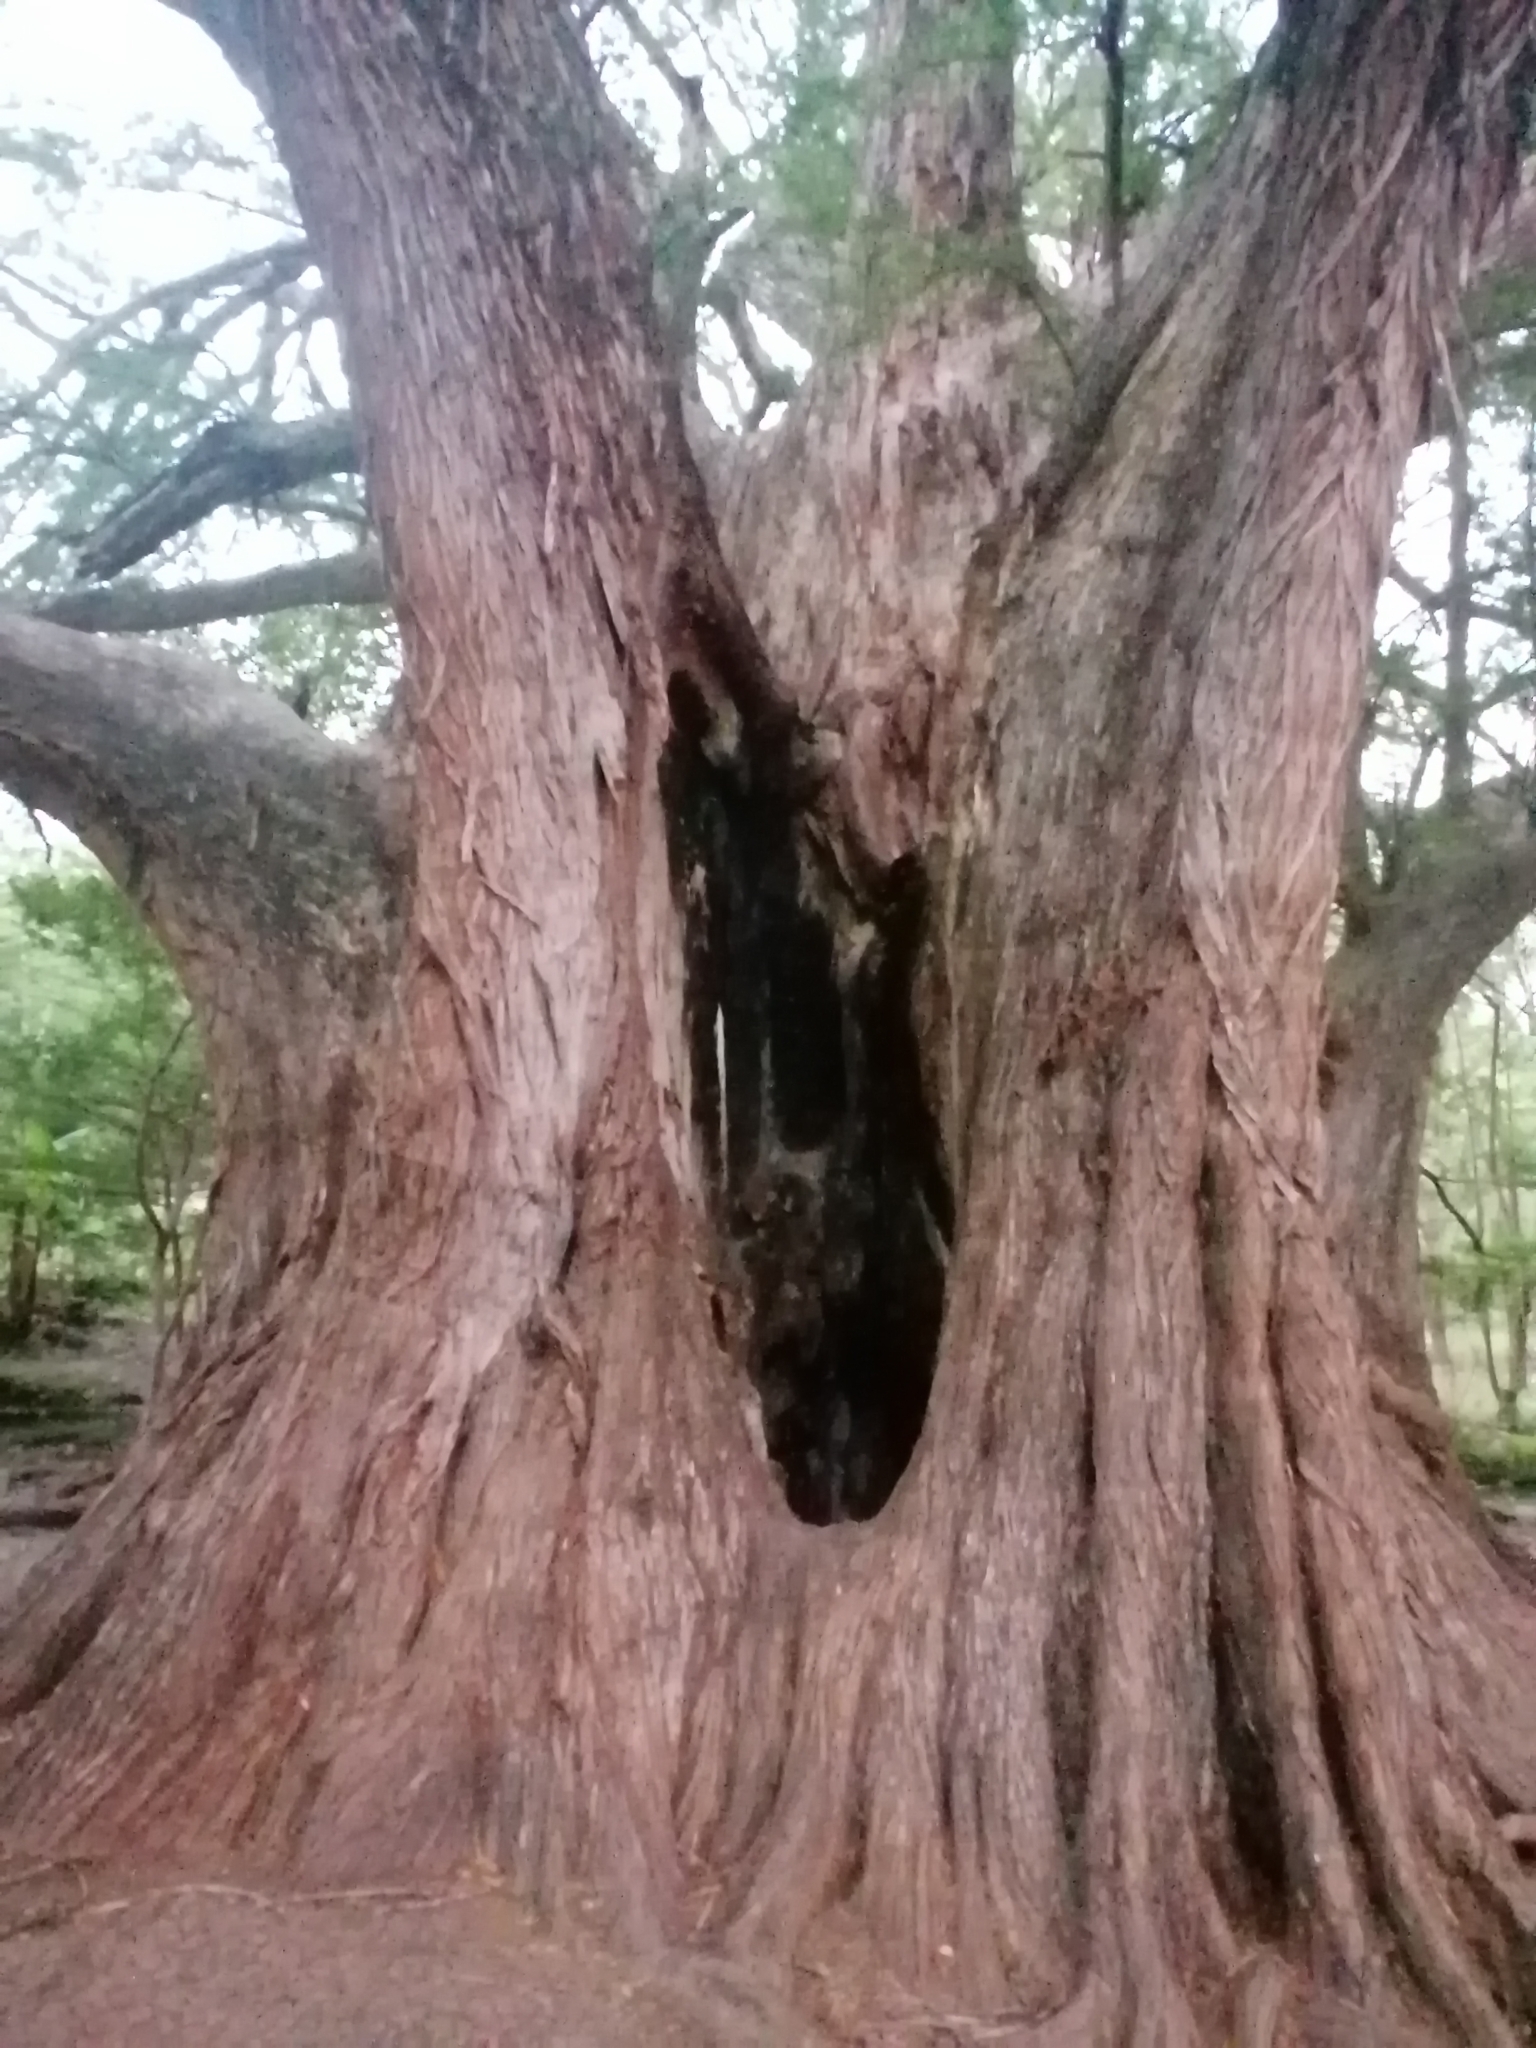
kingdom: Plantae
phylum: Tracheophyta
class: Pinopsida
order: Pinales
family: Cupressaceae
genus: Taxodium
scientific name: Taxodium mucronatum
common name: Montezume bald cypress
